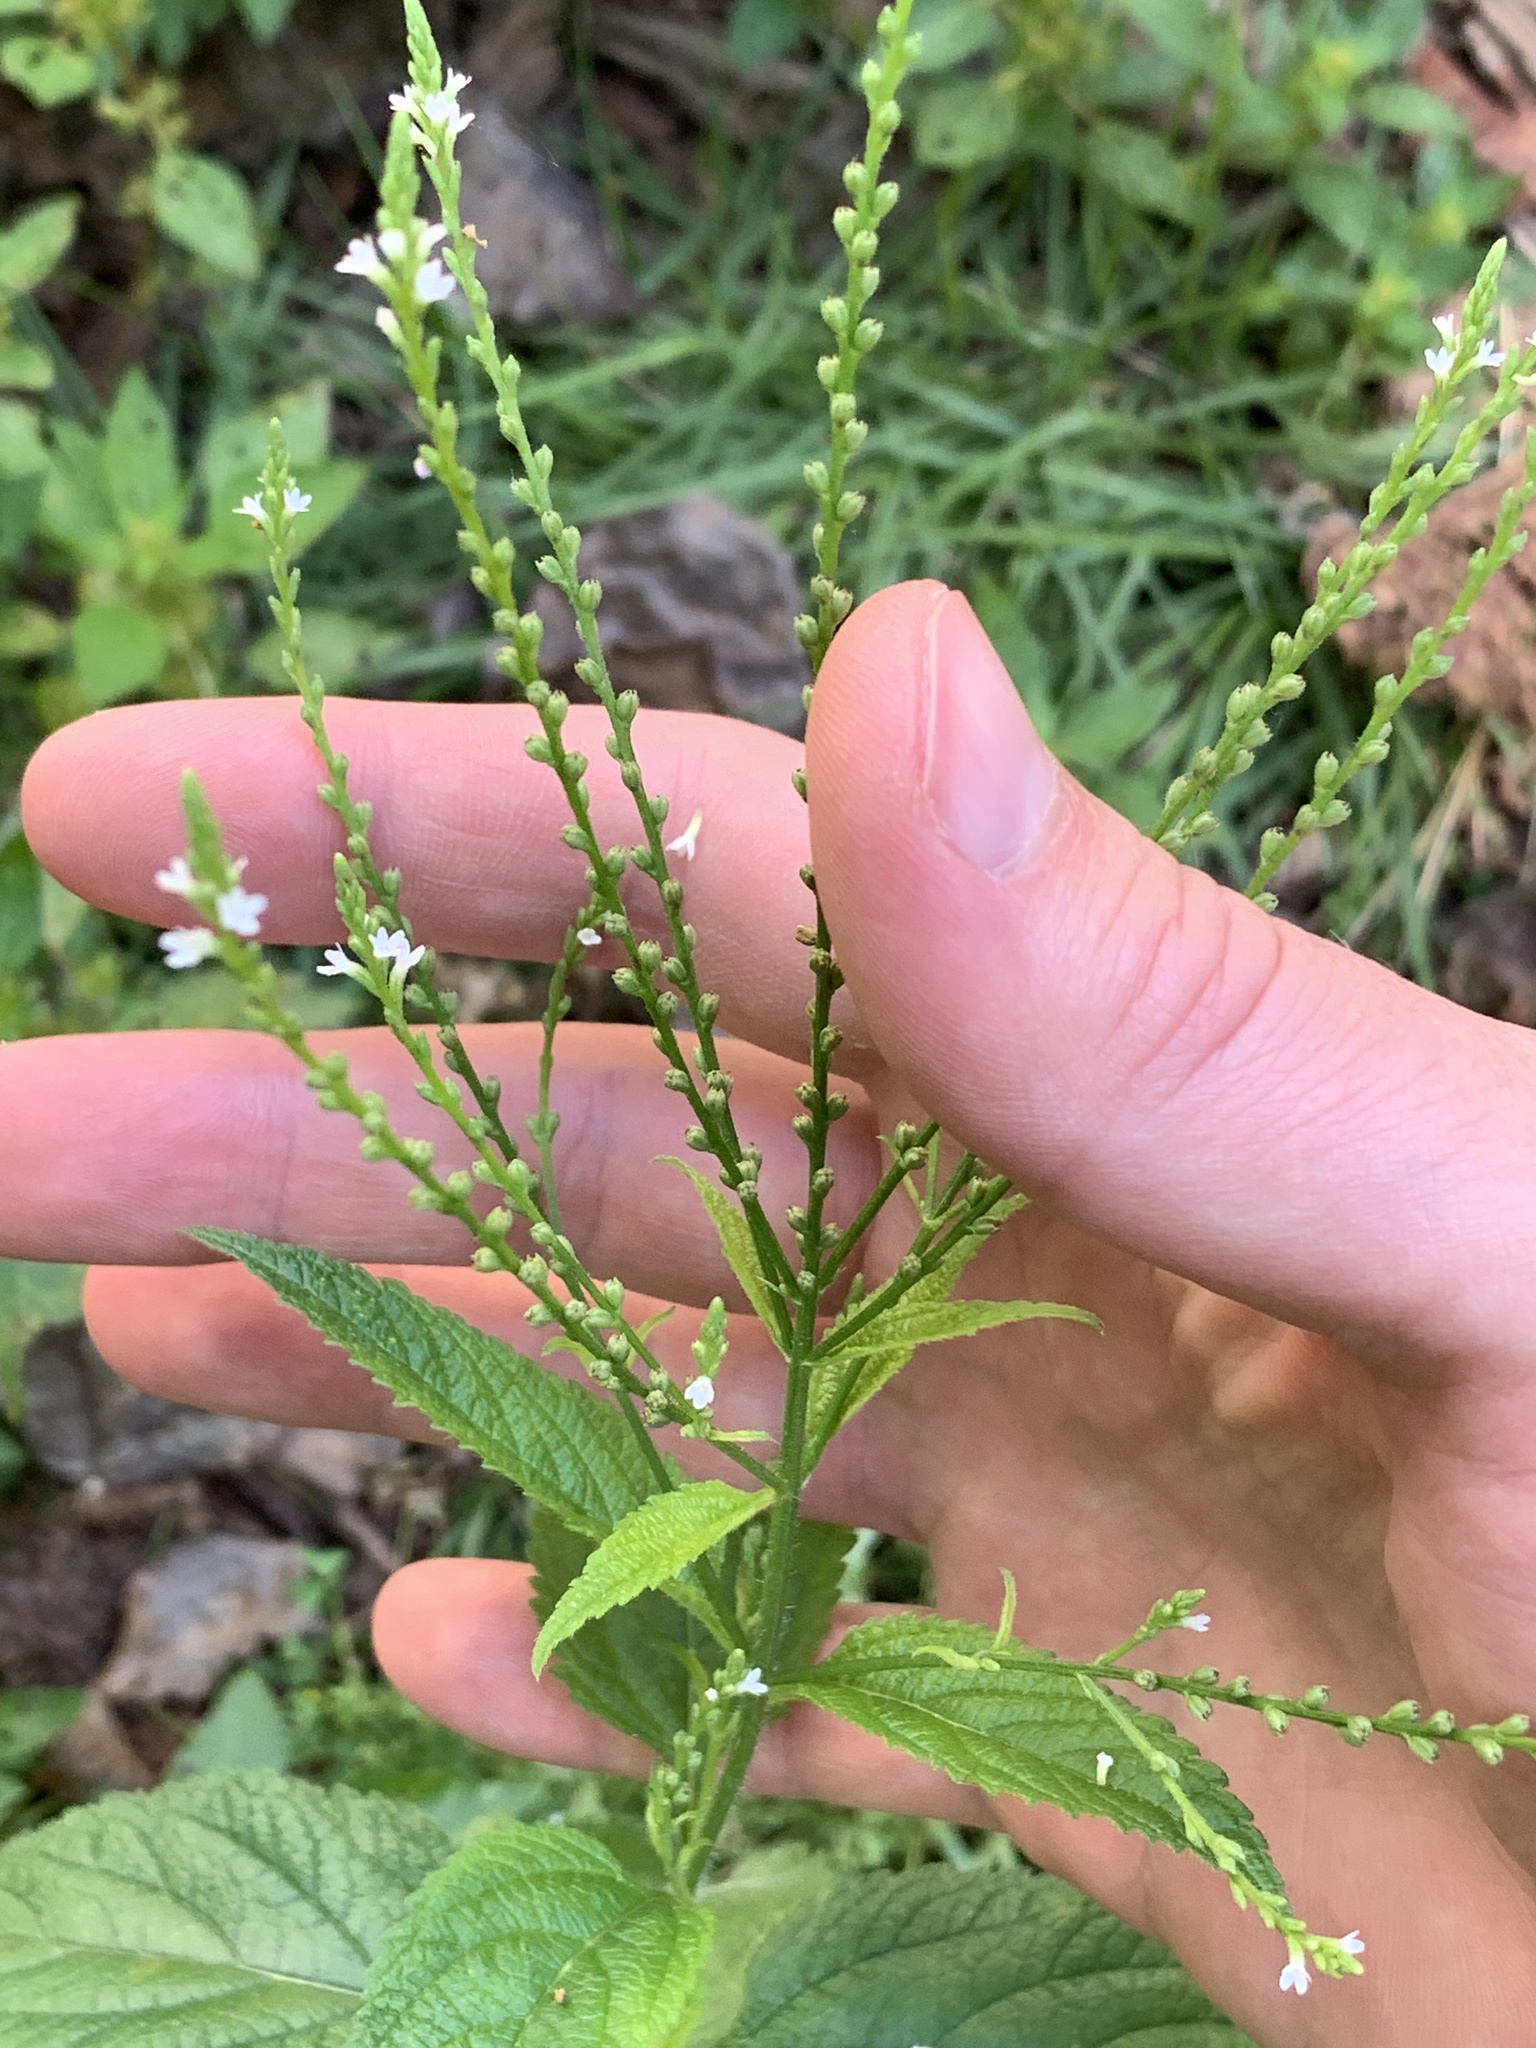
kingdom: Plantae
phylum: Tracheophyta
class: Magnoliopsida
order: Lamiales
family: Verbenaceae
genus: Verbena
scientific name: Verbena urticifolia
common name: Nettle-leaved vervain
